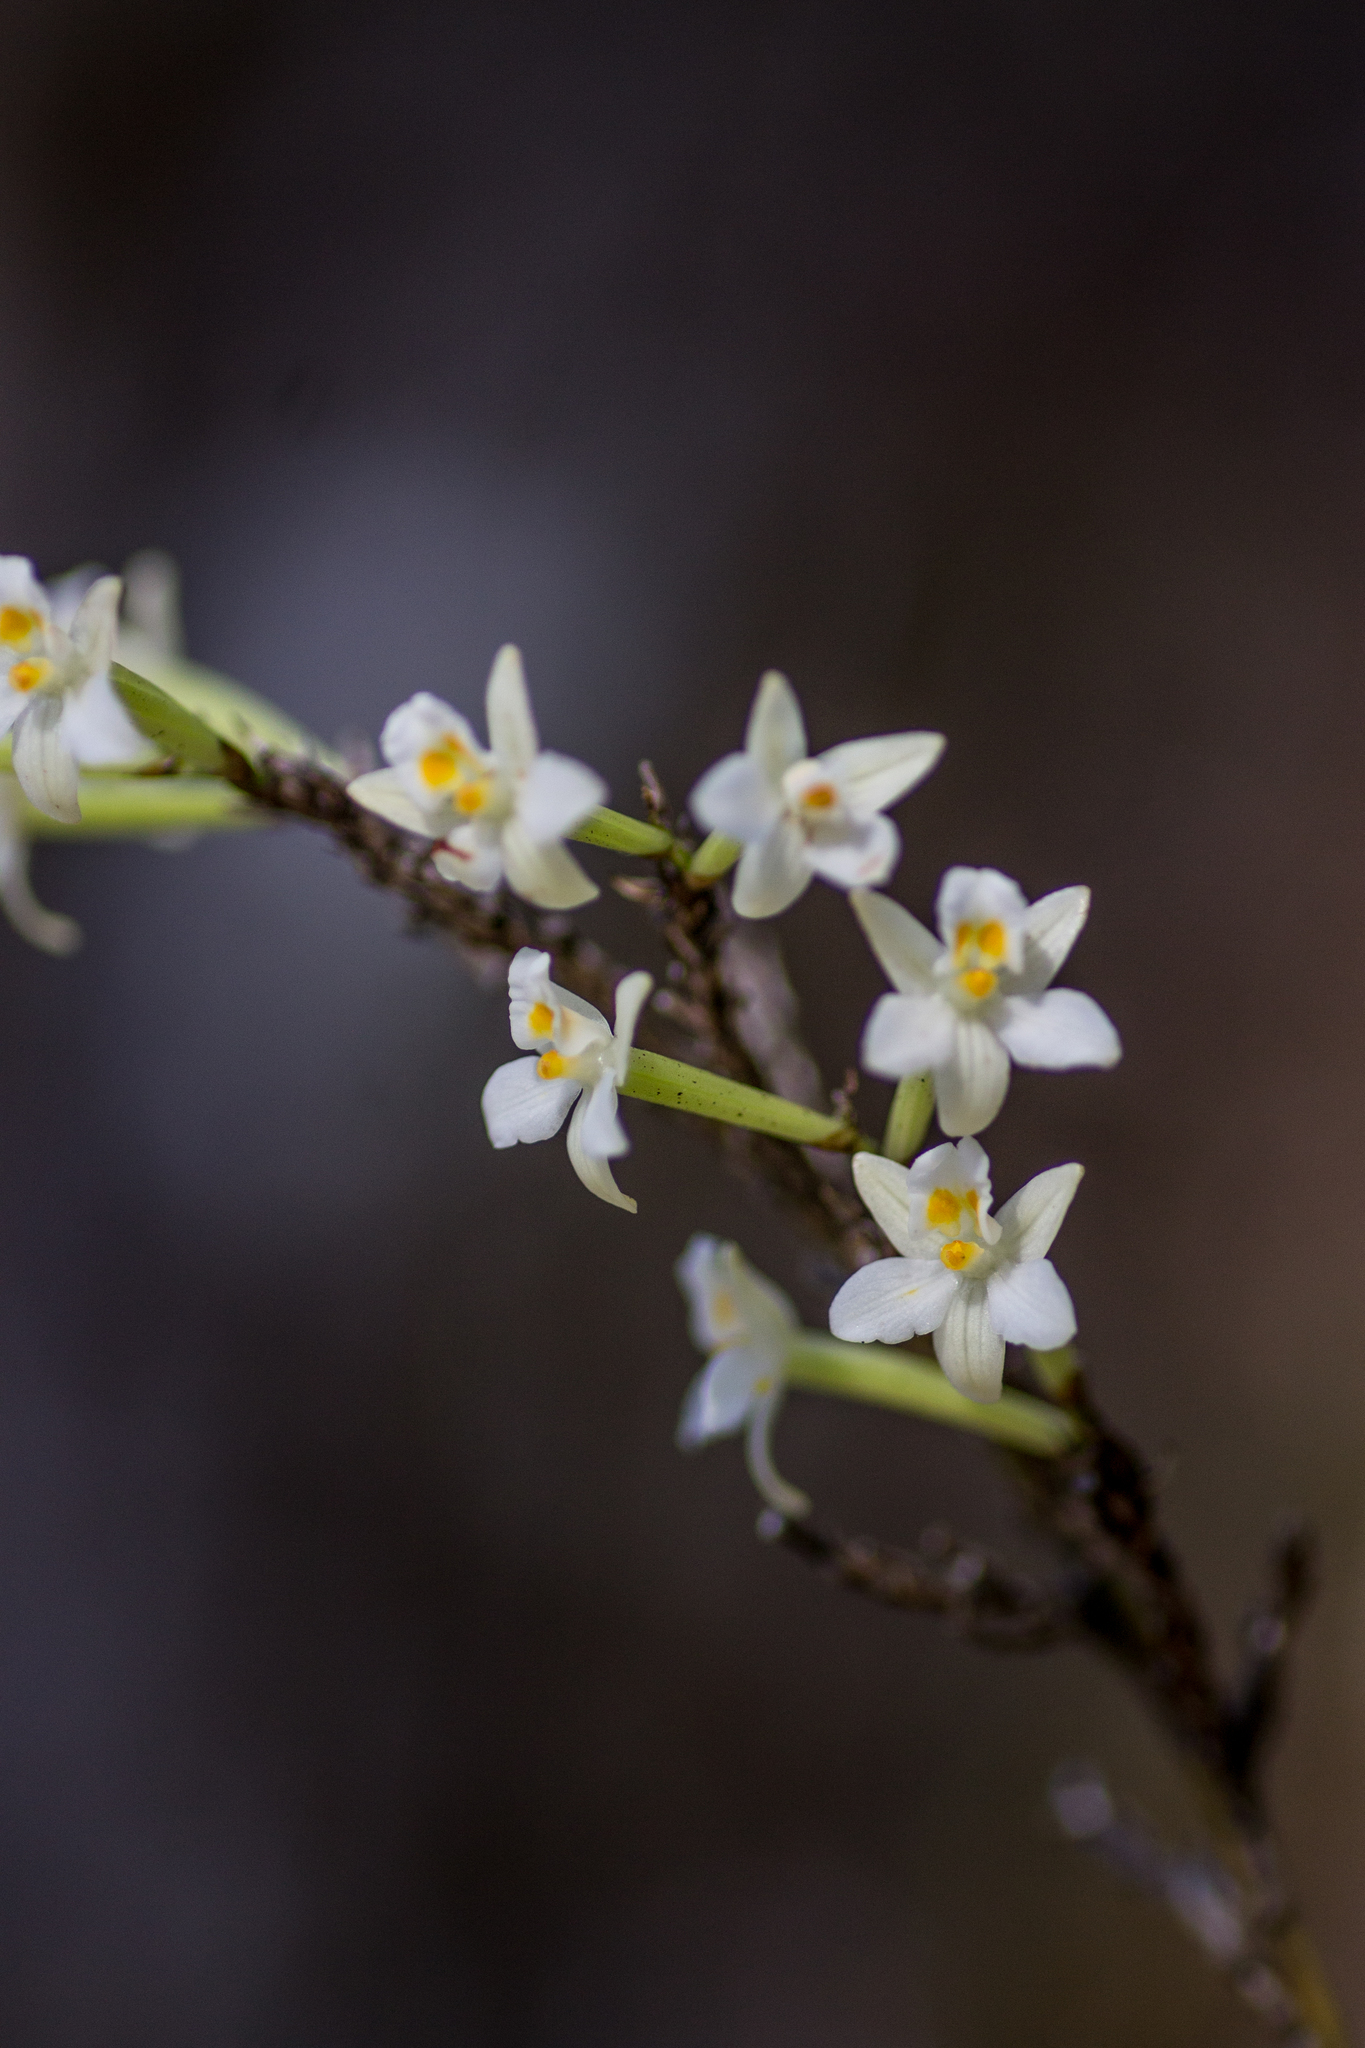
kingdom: Plantae
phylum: Tracheophyta
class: Liliopsida
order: Asparagales
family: Orchidaceae
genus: Earina
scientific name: Earina autumnalis
